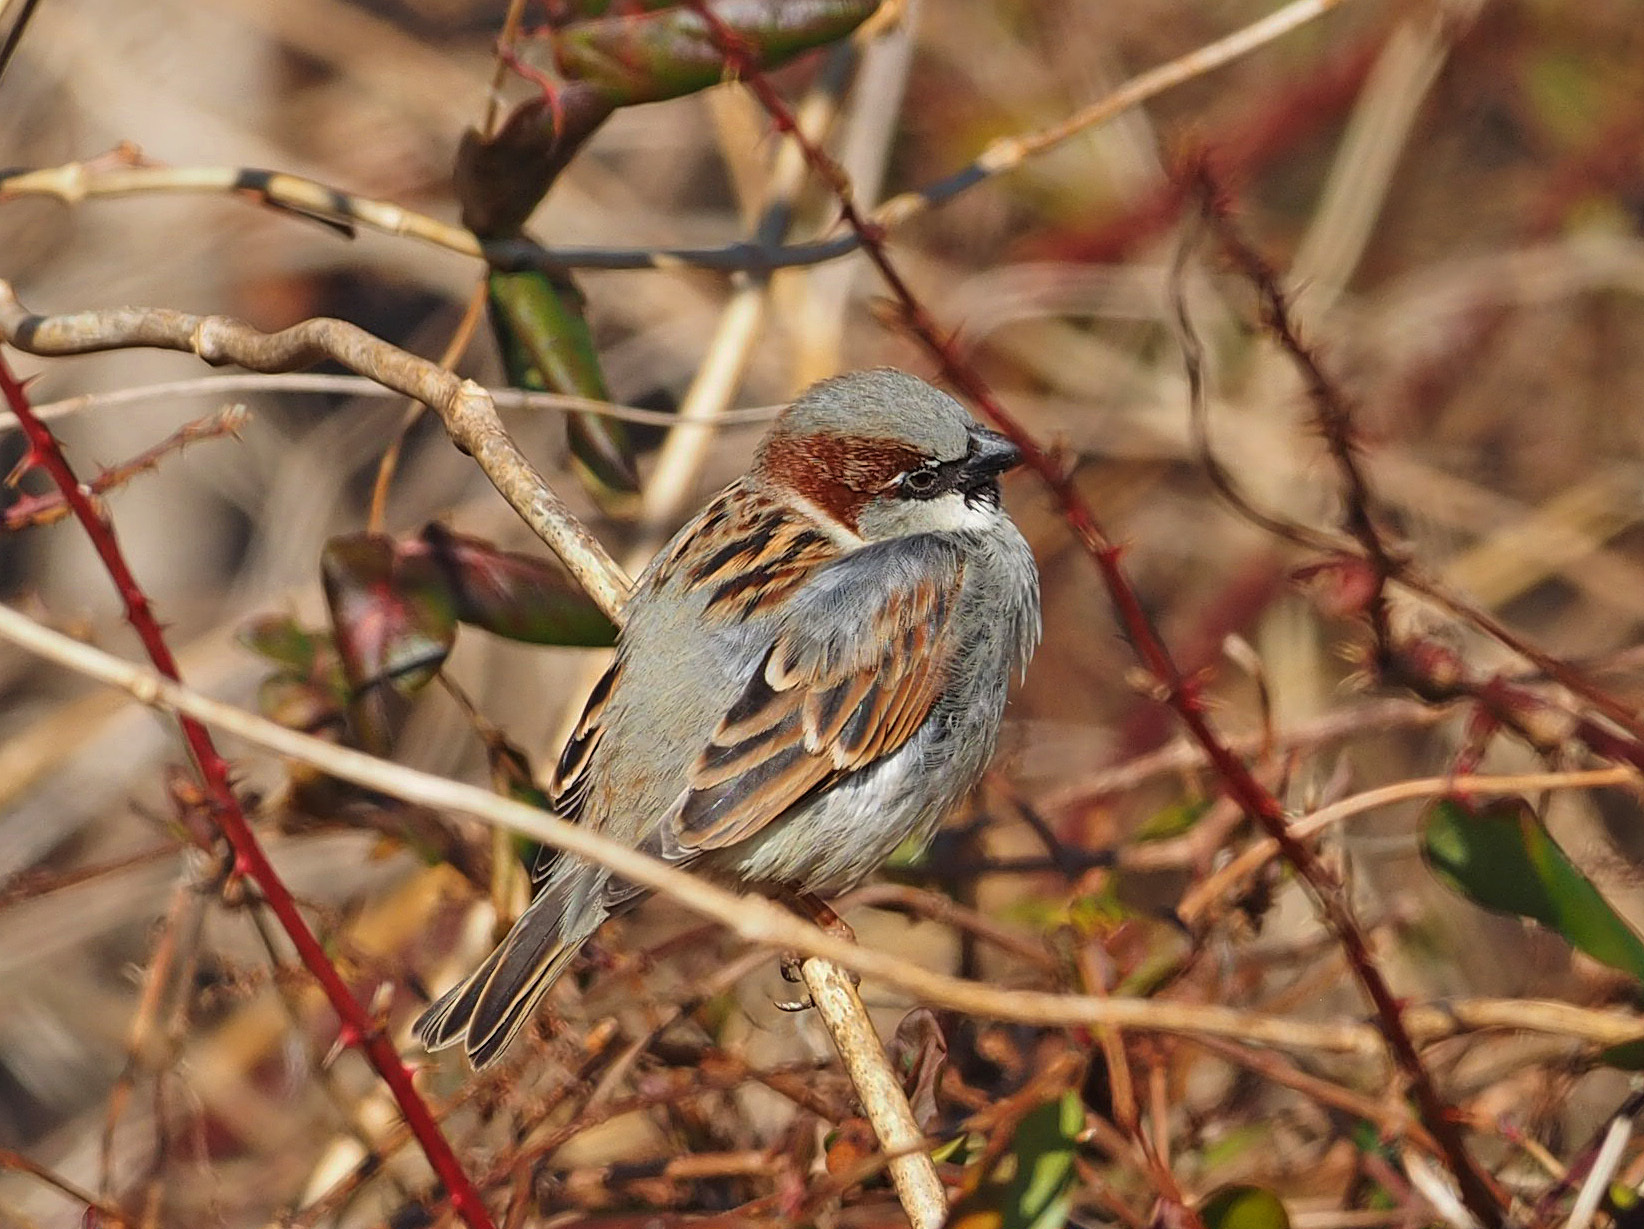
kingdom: Animalia
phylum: Chordata
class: Aves
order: Passeriformes
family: Passeridae
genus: Passer
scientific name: Passer domesticus
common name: House sparrow
